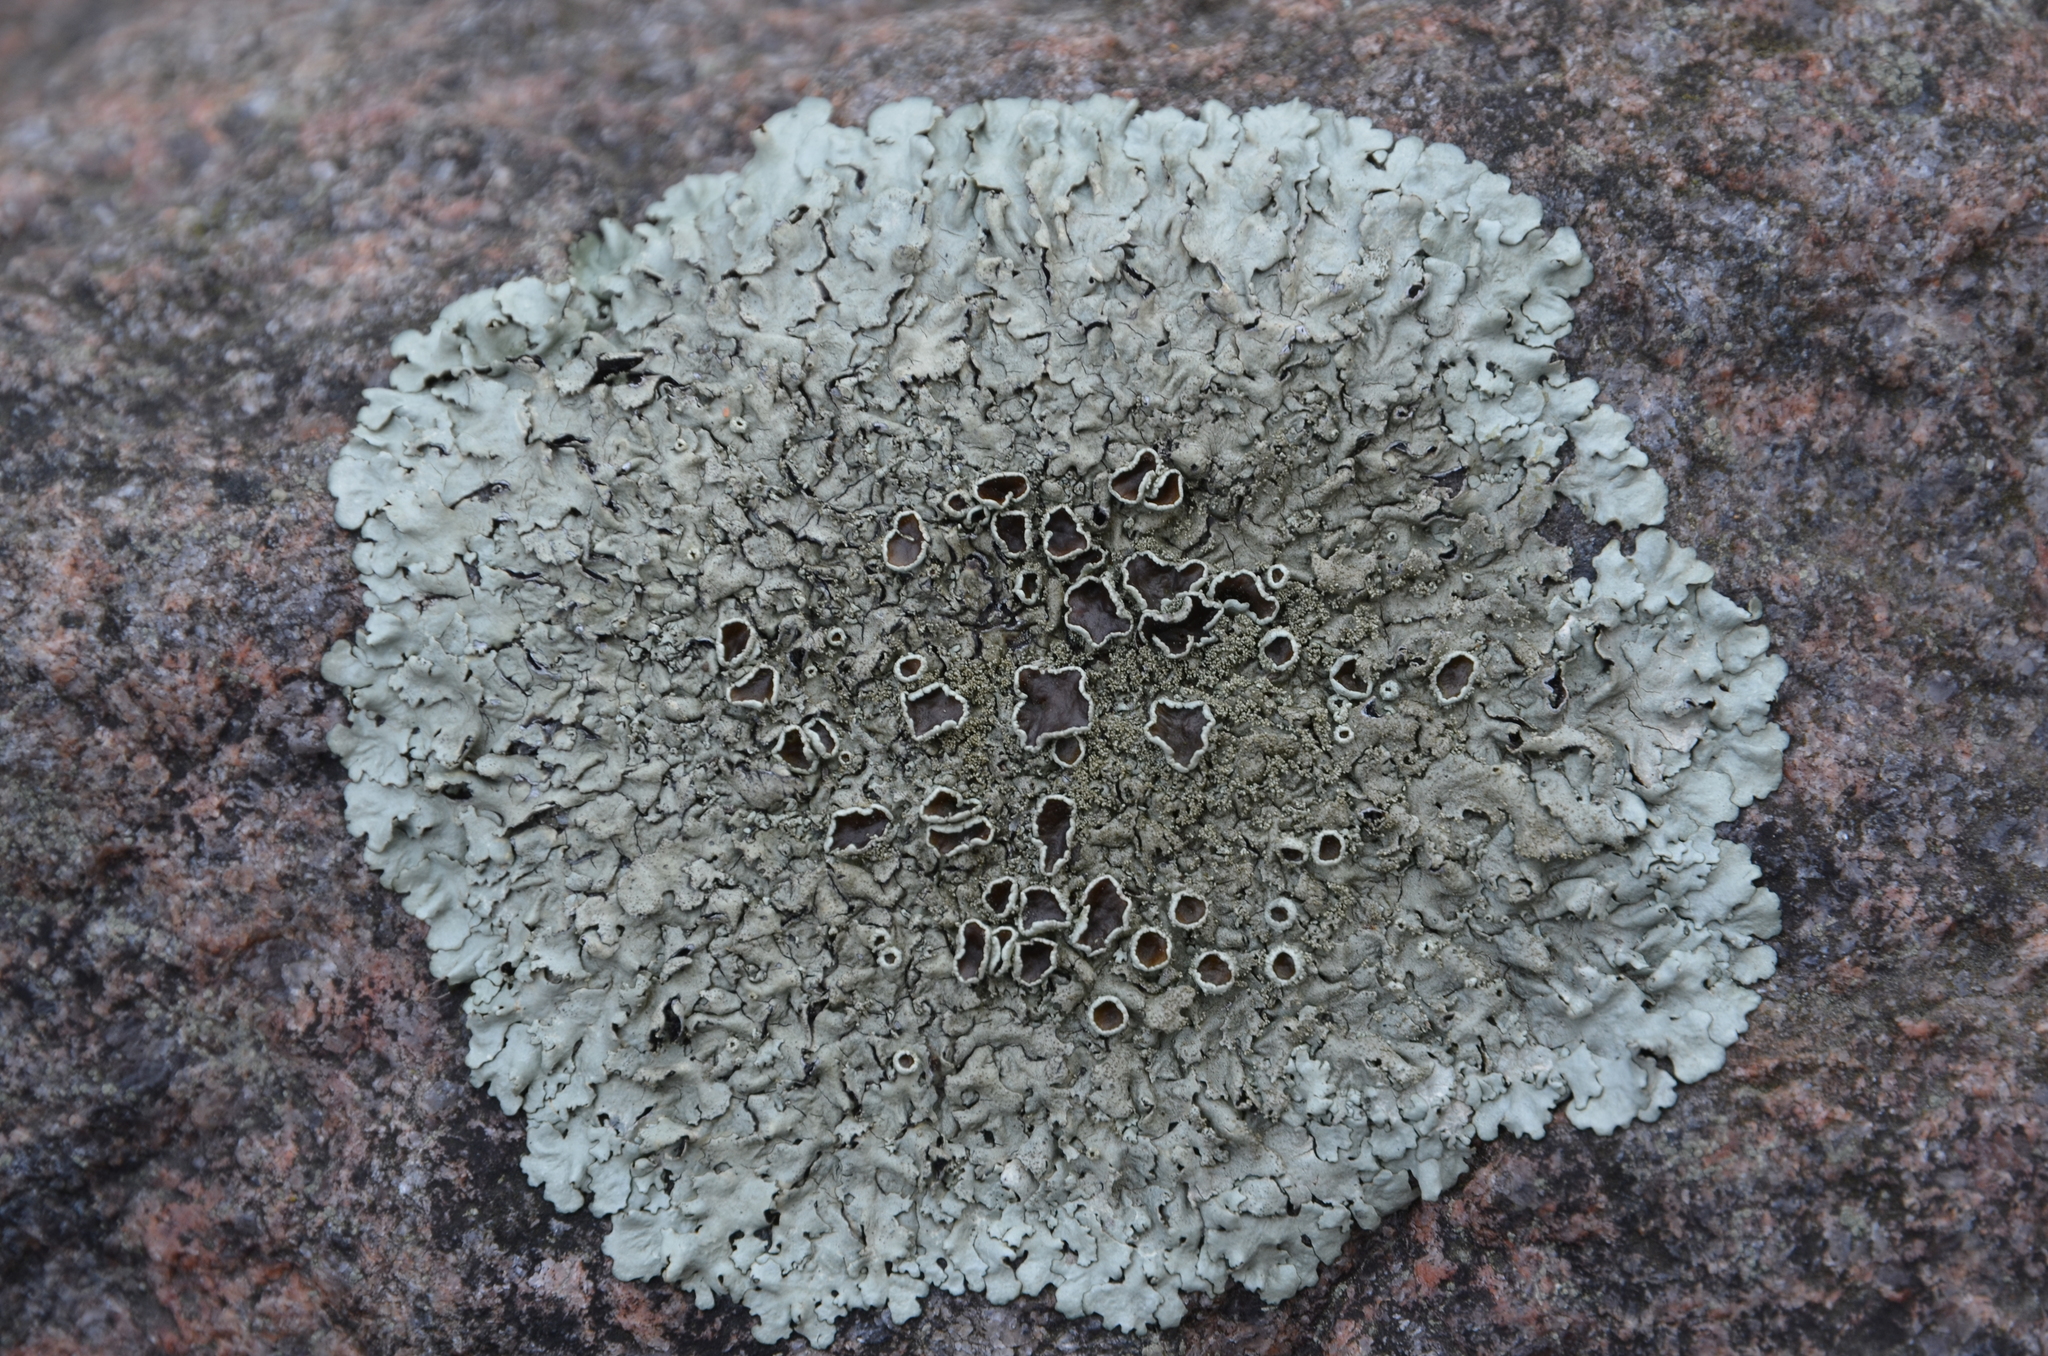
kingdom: Fungi
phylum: Ascomycota
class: Lecanoromycetes
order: Lecanorales
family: Parmeliaceae
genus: Xanthoparmelia
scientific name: Xanthoparmelia conspersa
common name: Peppered rock shield
